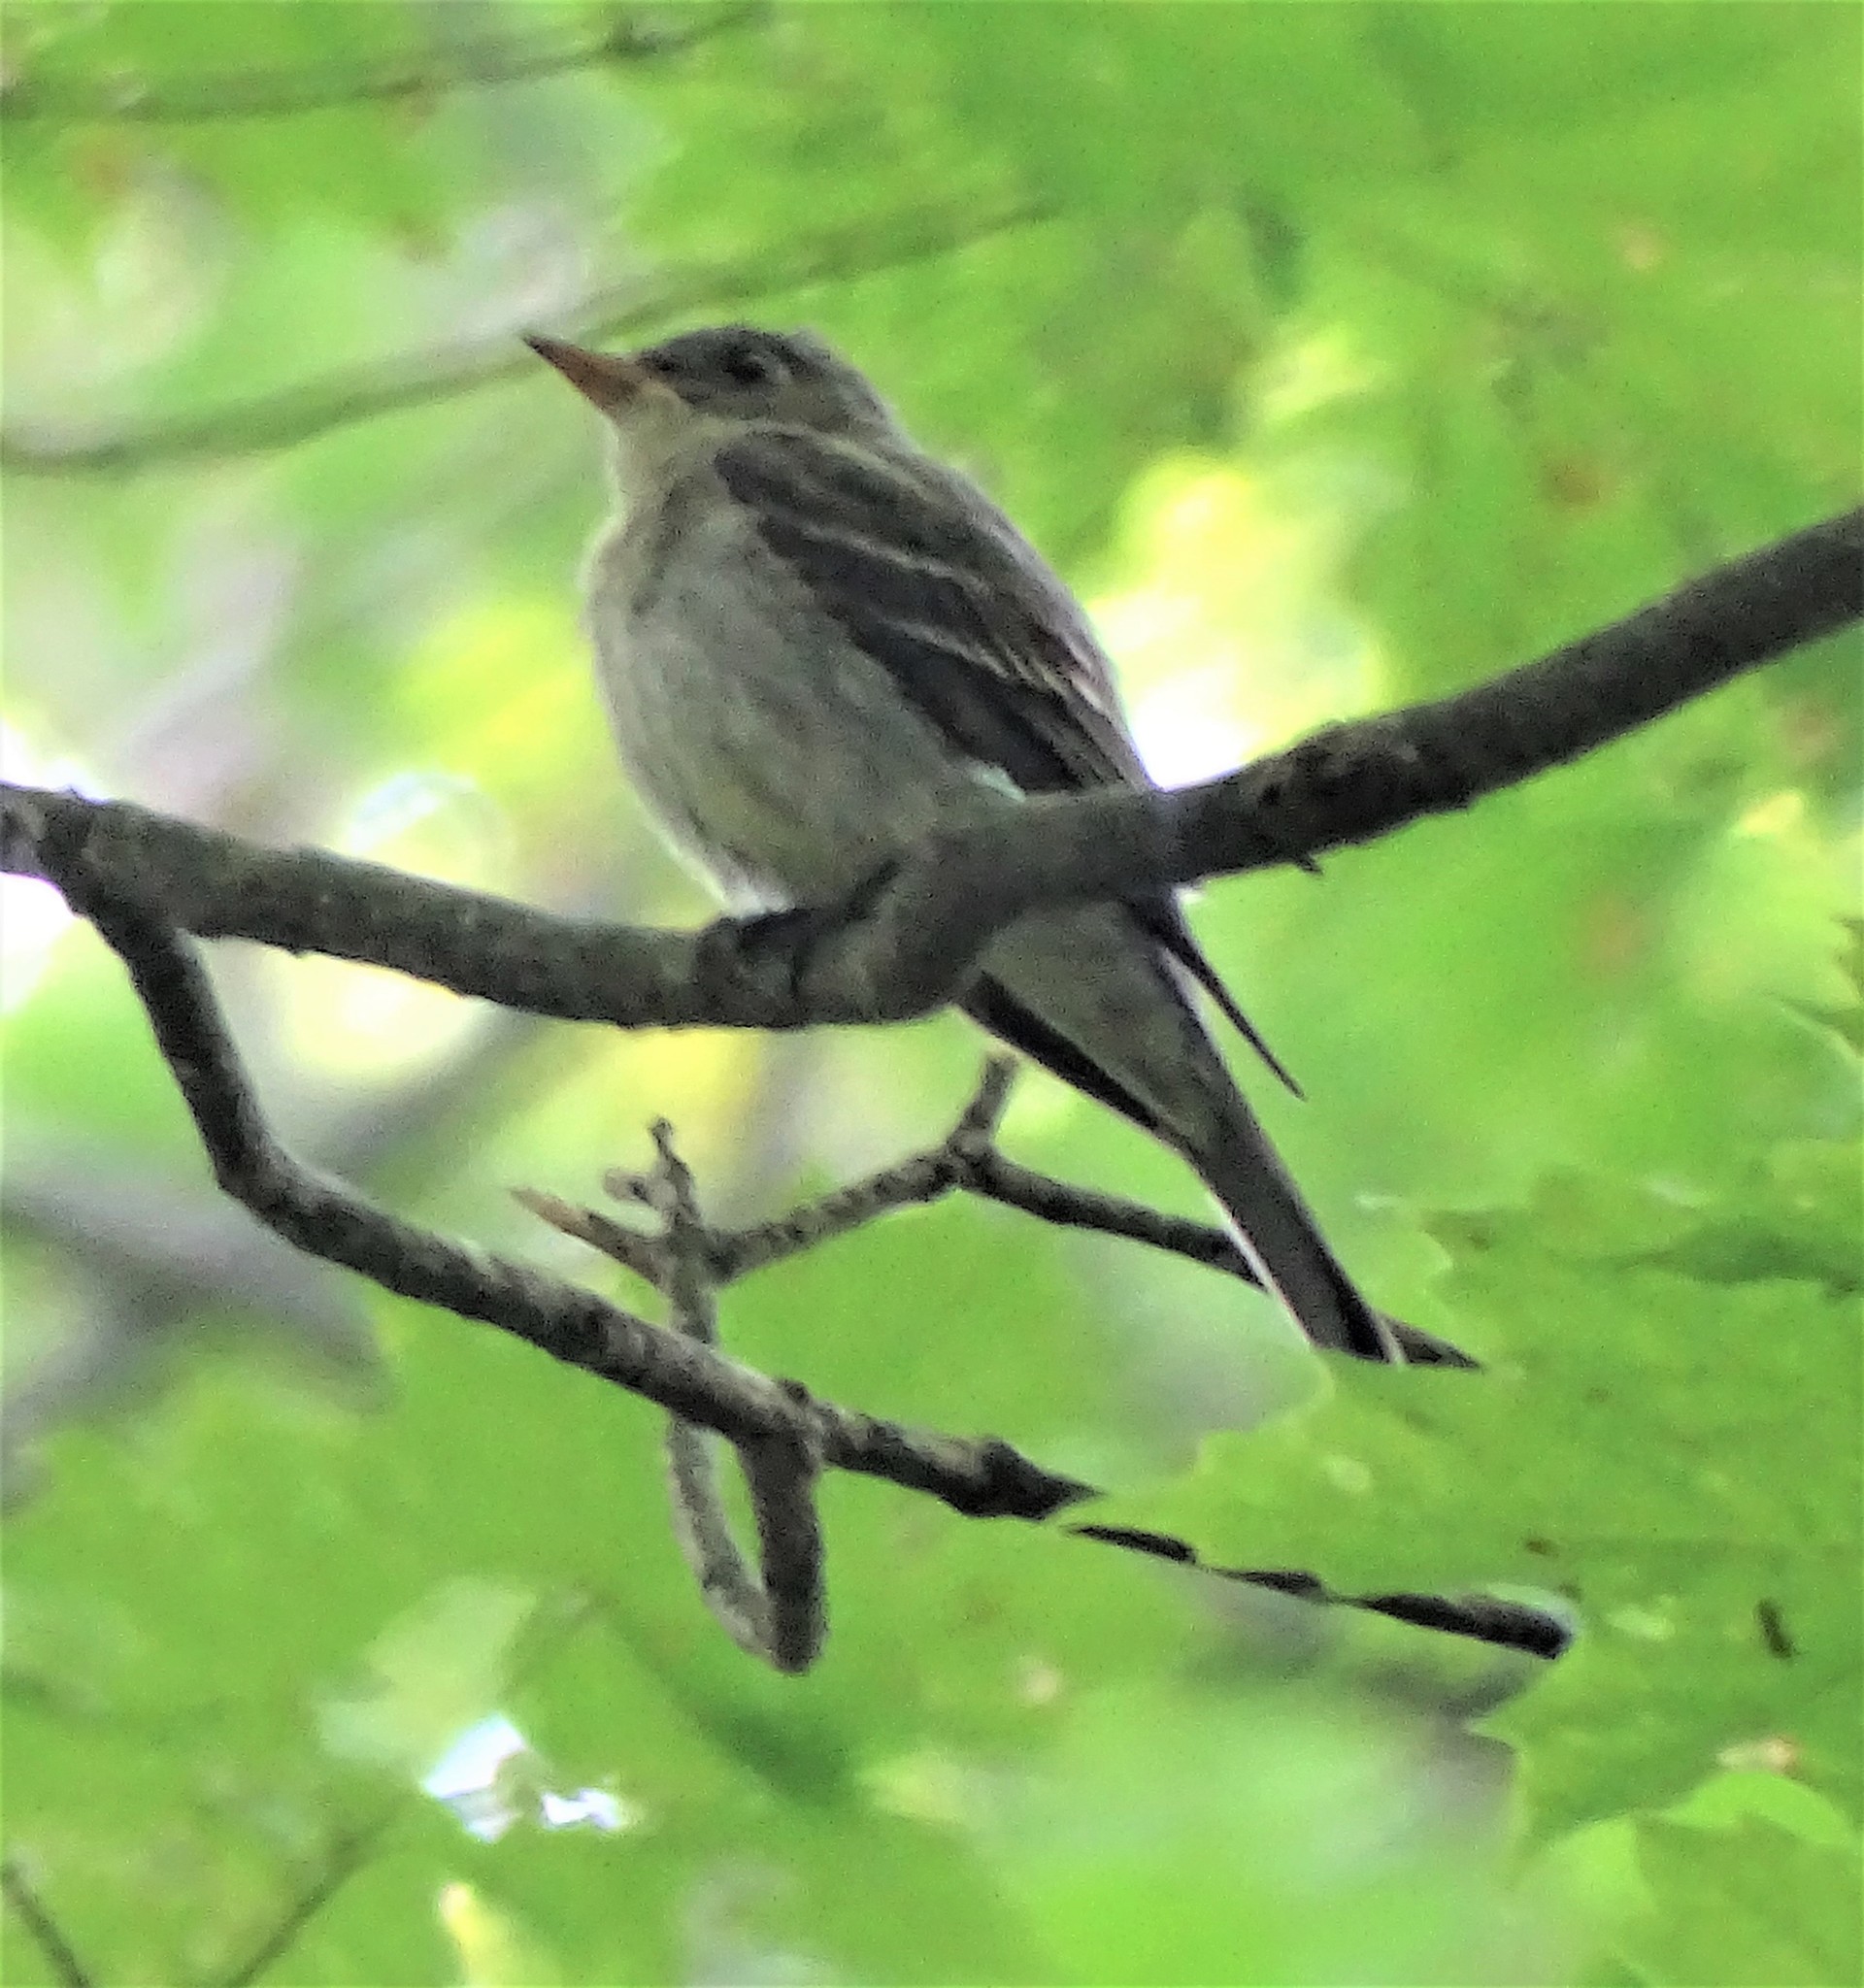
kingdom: Animalia
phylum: Chordata
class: Aves
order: Passeriformes
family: Tyrannidae
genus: Contopus
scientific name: Contopus virens
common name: Eastern wood-pewee
